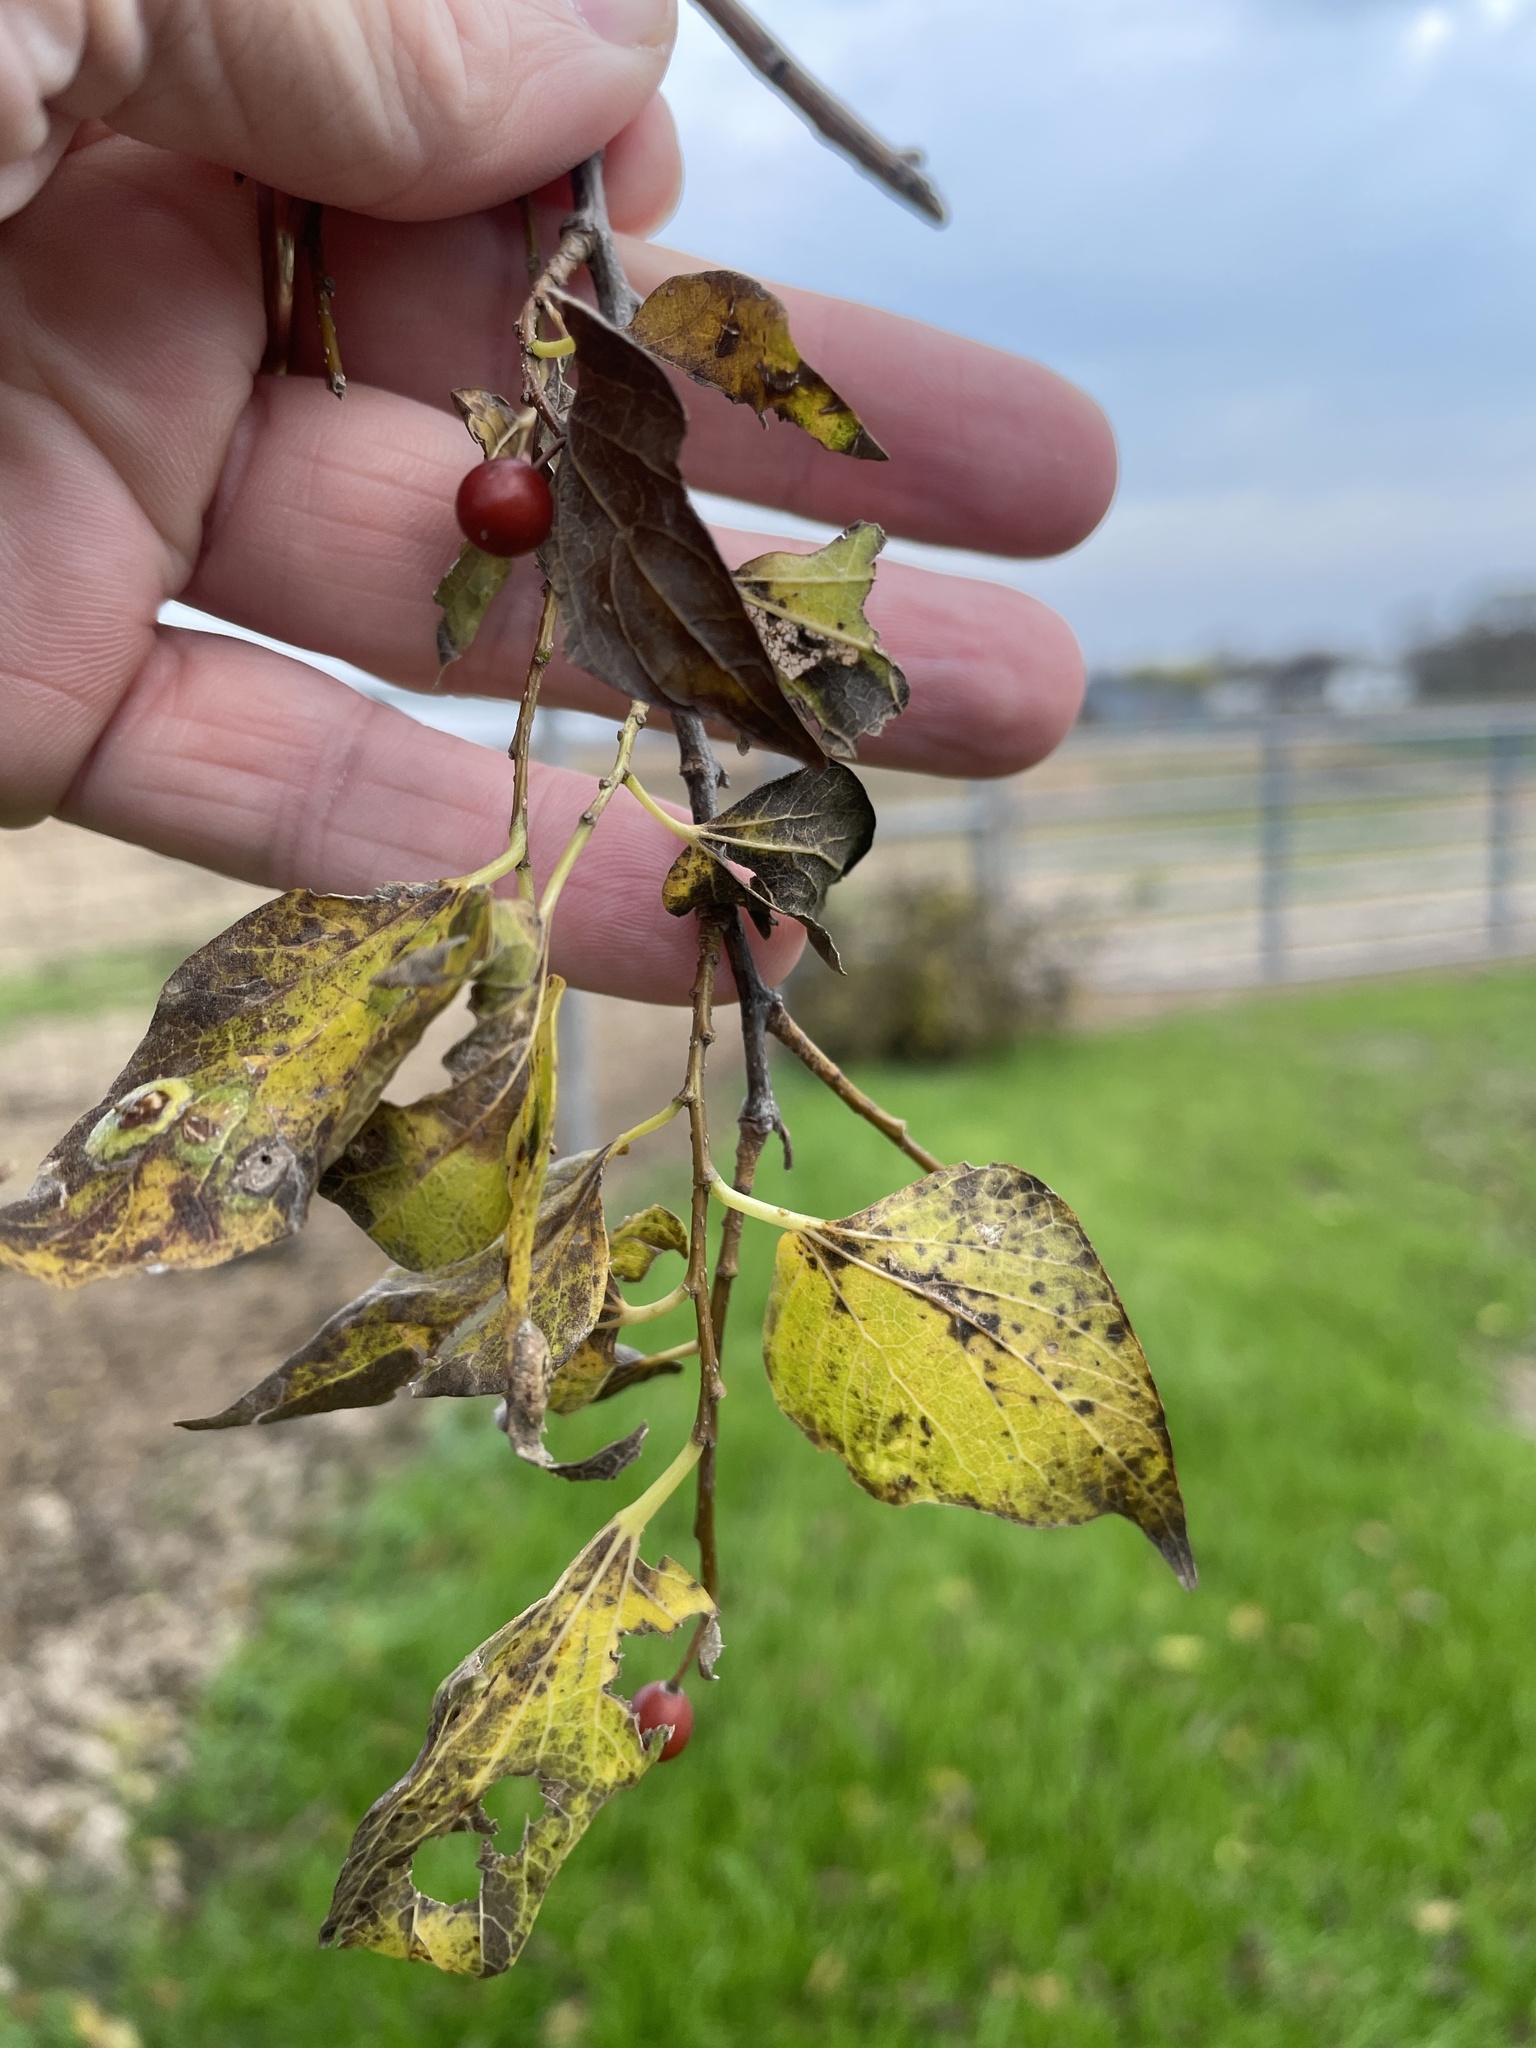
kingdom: Plantae
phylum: Tracheophyta
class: Magnoliopsida
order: Rosales
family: Cannabaceae
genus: Celtis
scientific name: Celtis laevigata
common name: Sugarberry
